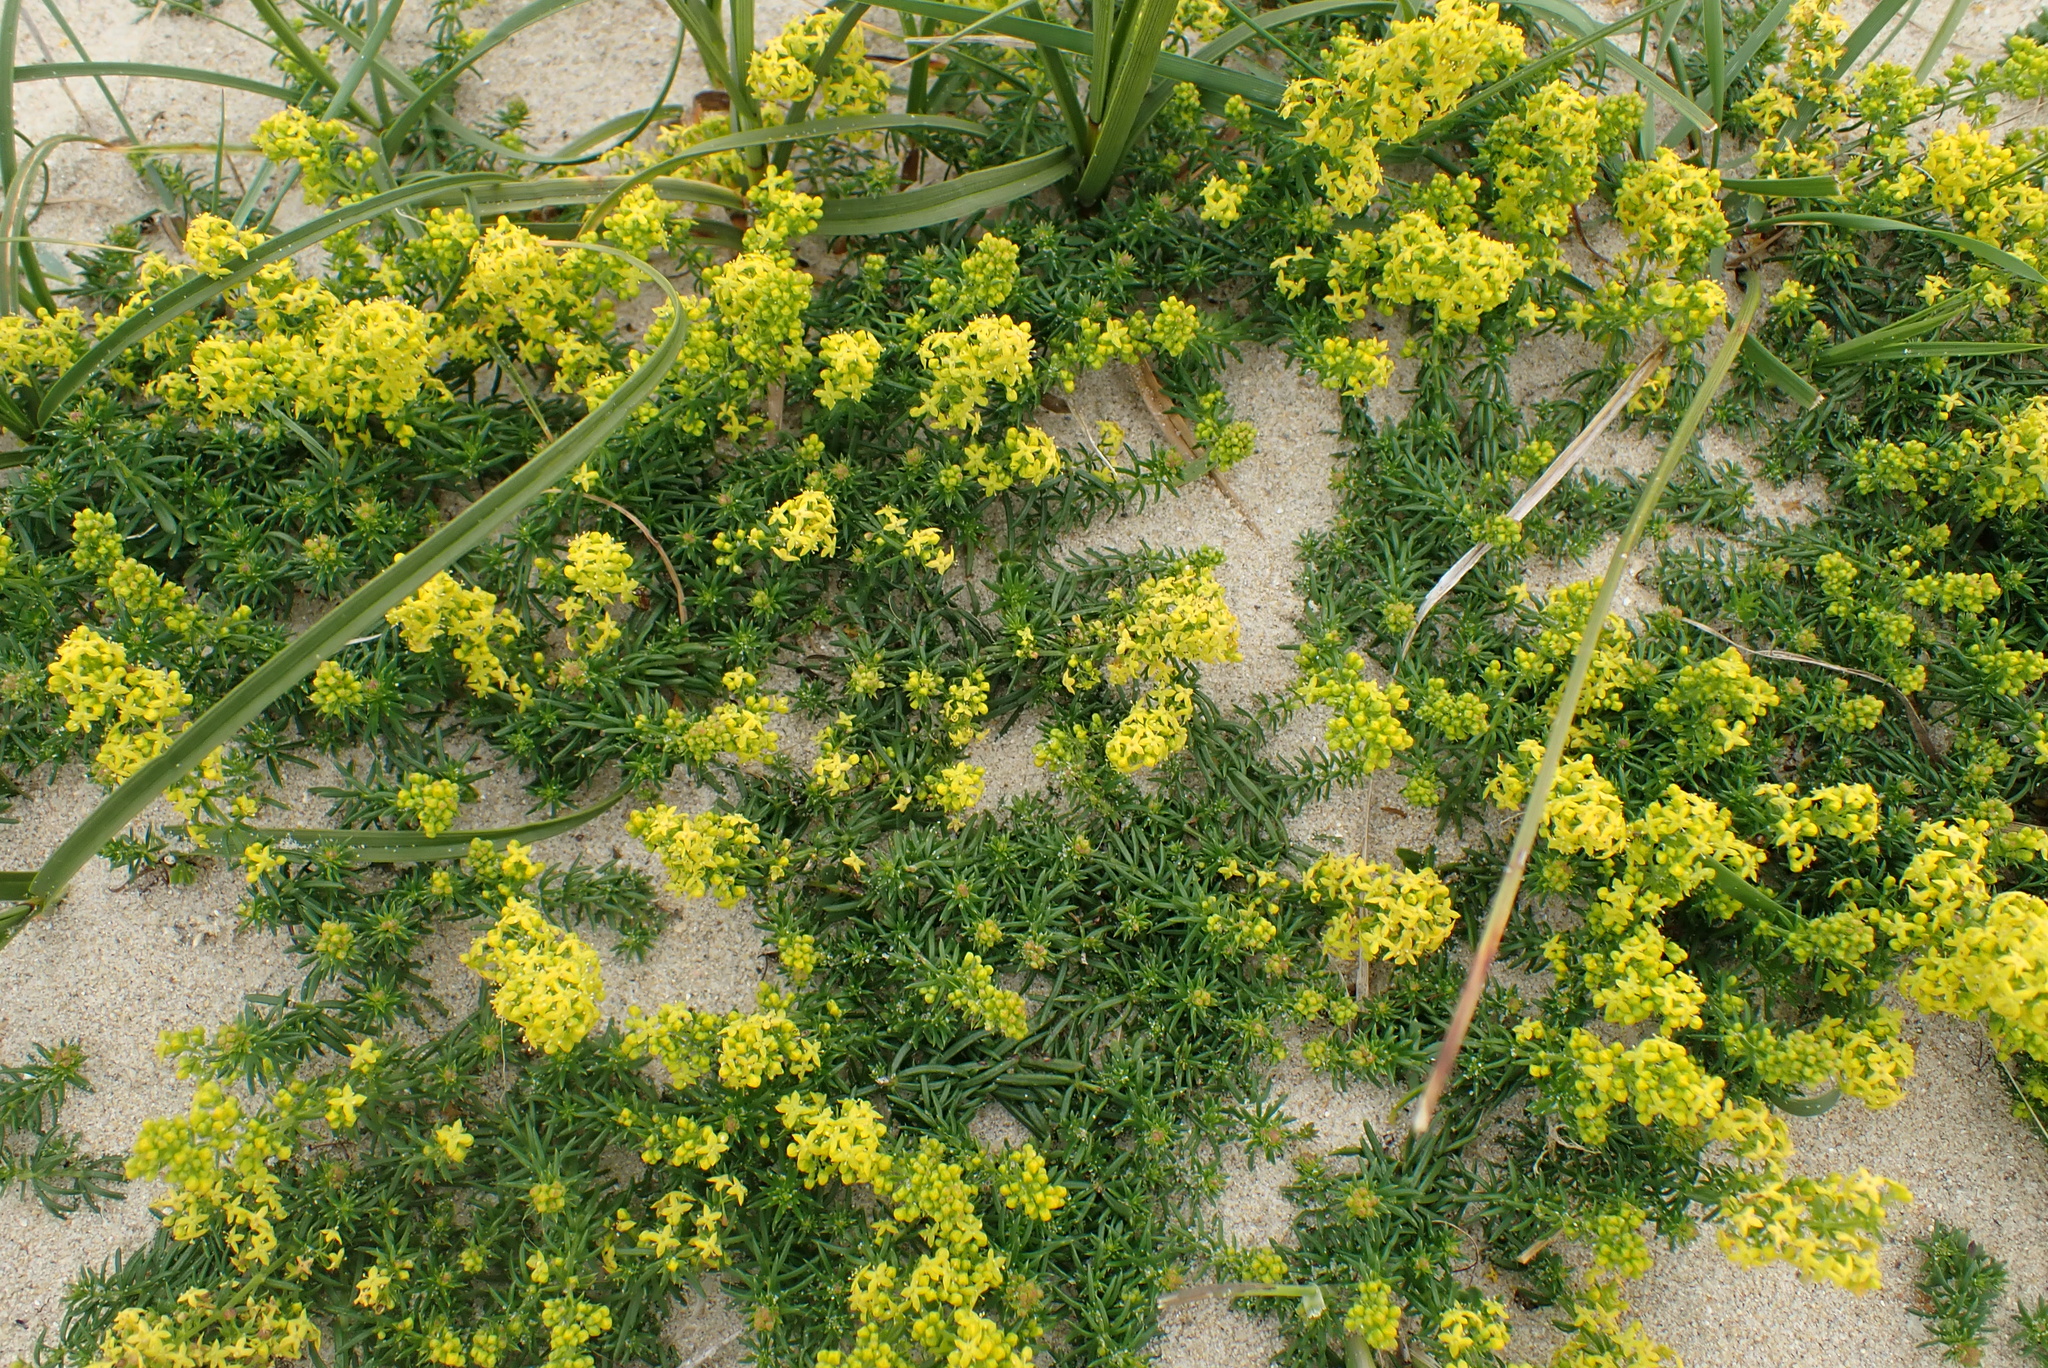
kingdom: Plantae
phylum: Tracheophyta
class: Magnoliopsida
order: Gentianales
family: Rubiaceae
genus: Galium
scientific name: Galium arenarium
